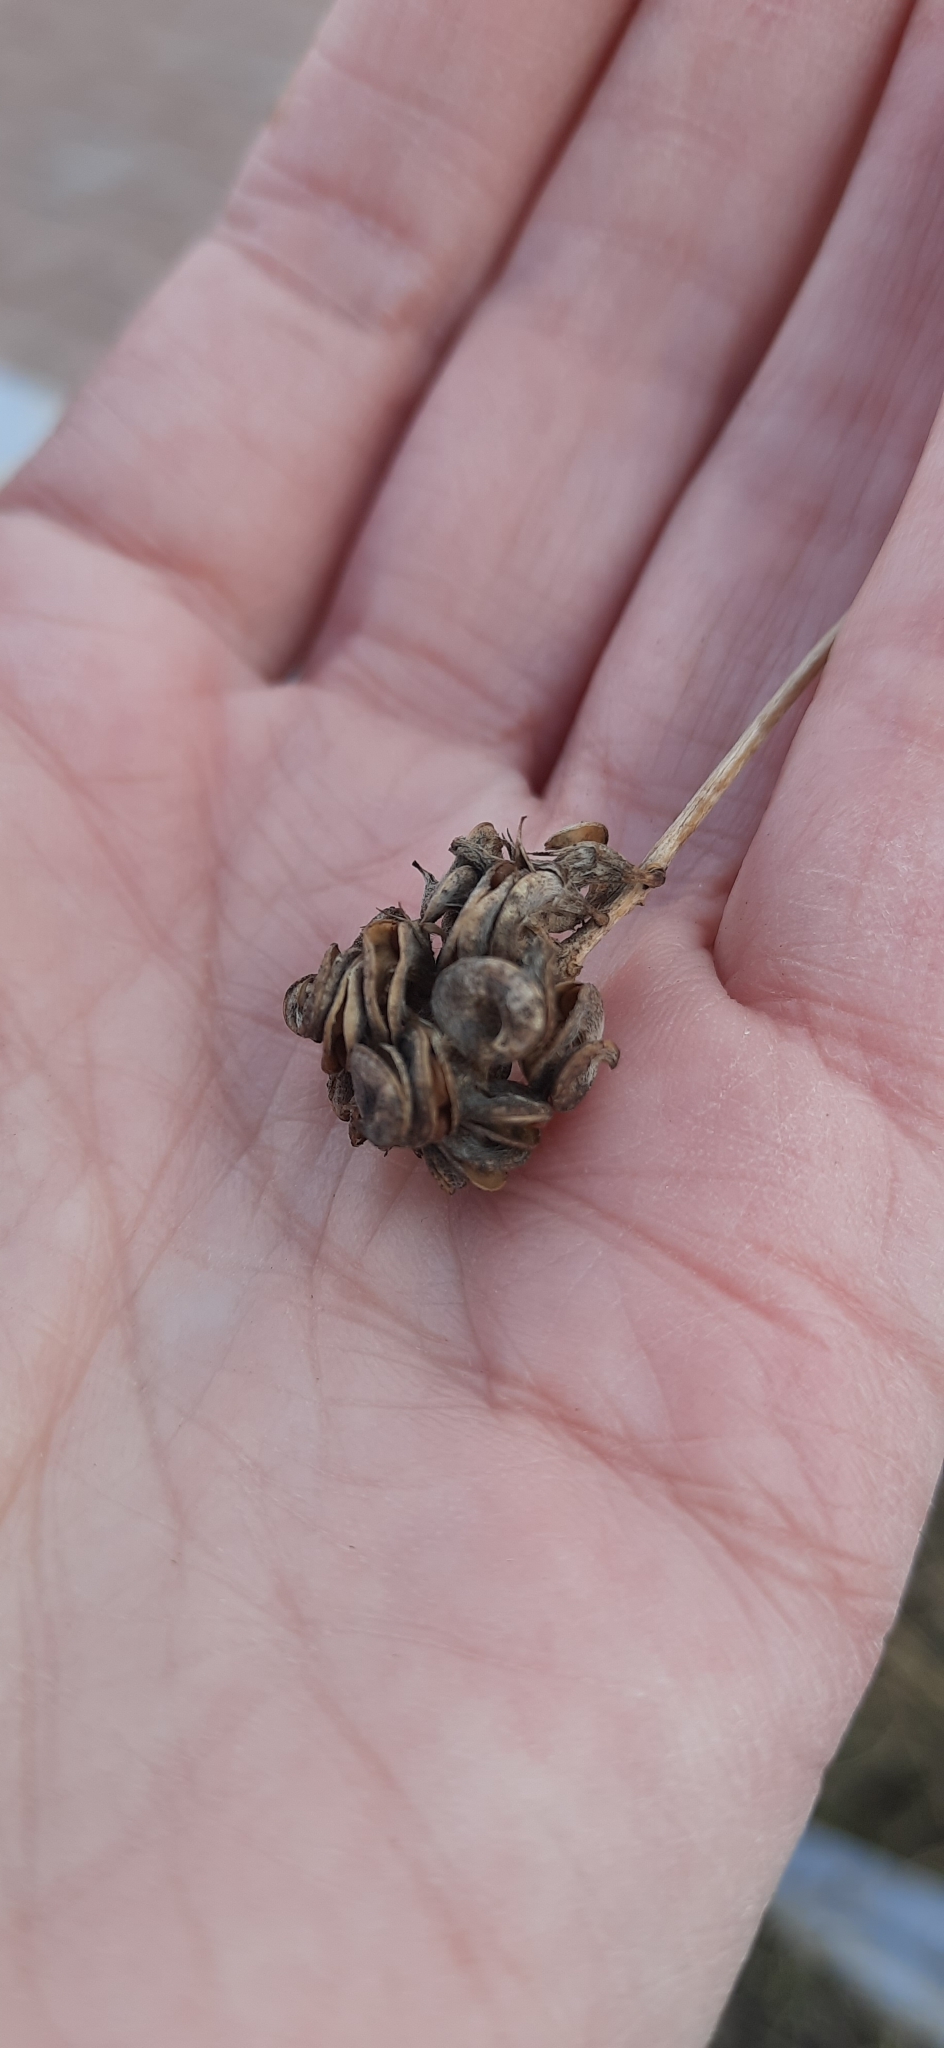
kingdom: Plantae
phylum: Tracheophyta
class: Magnoliopsida
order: Fabales
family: Fabaceae
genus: Medicago
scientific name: Medicago varia
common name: Sand lucerne
